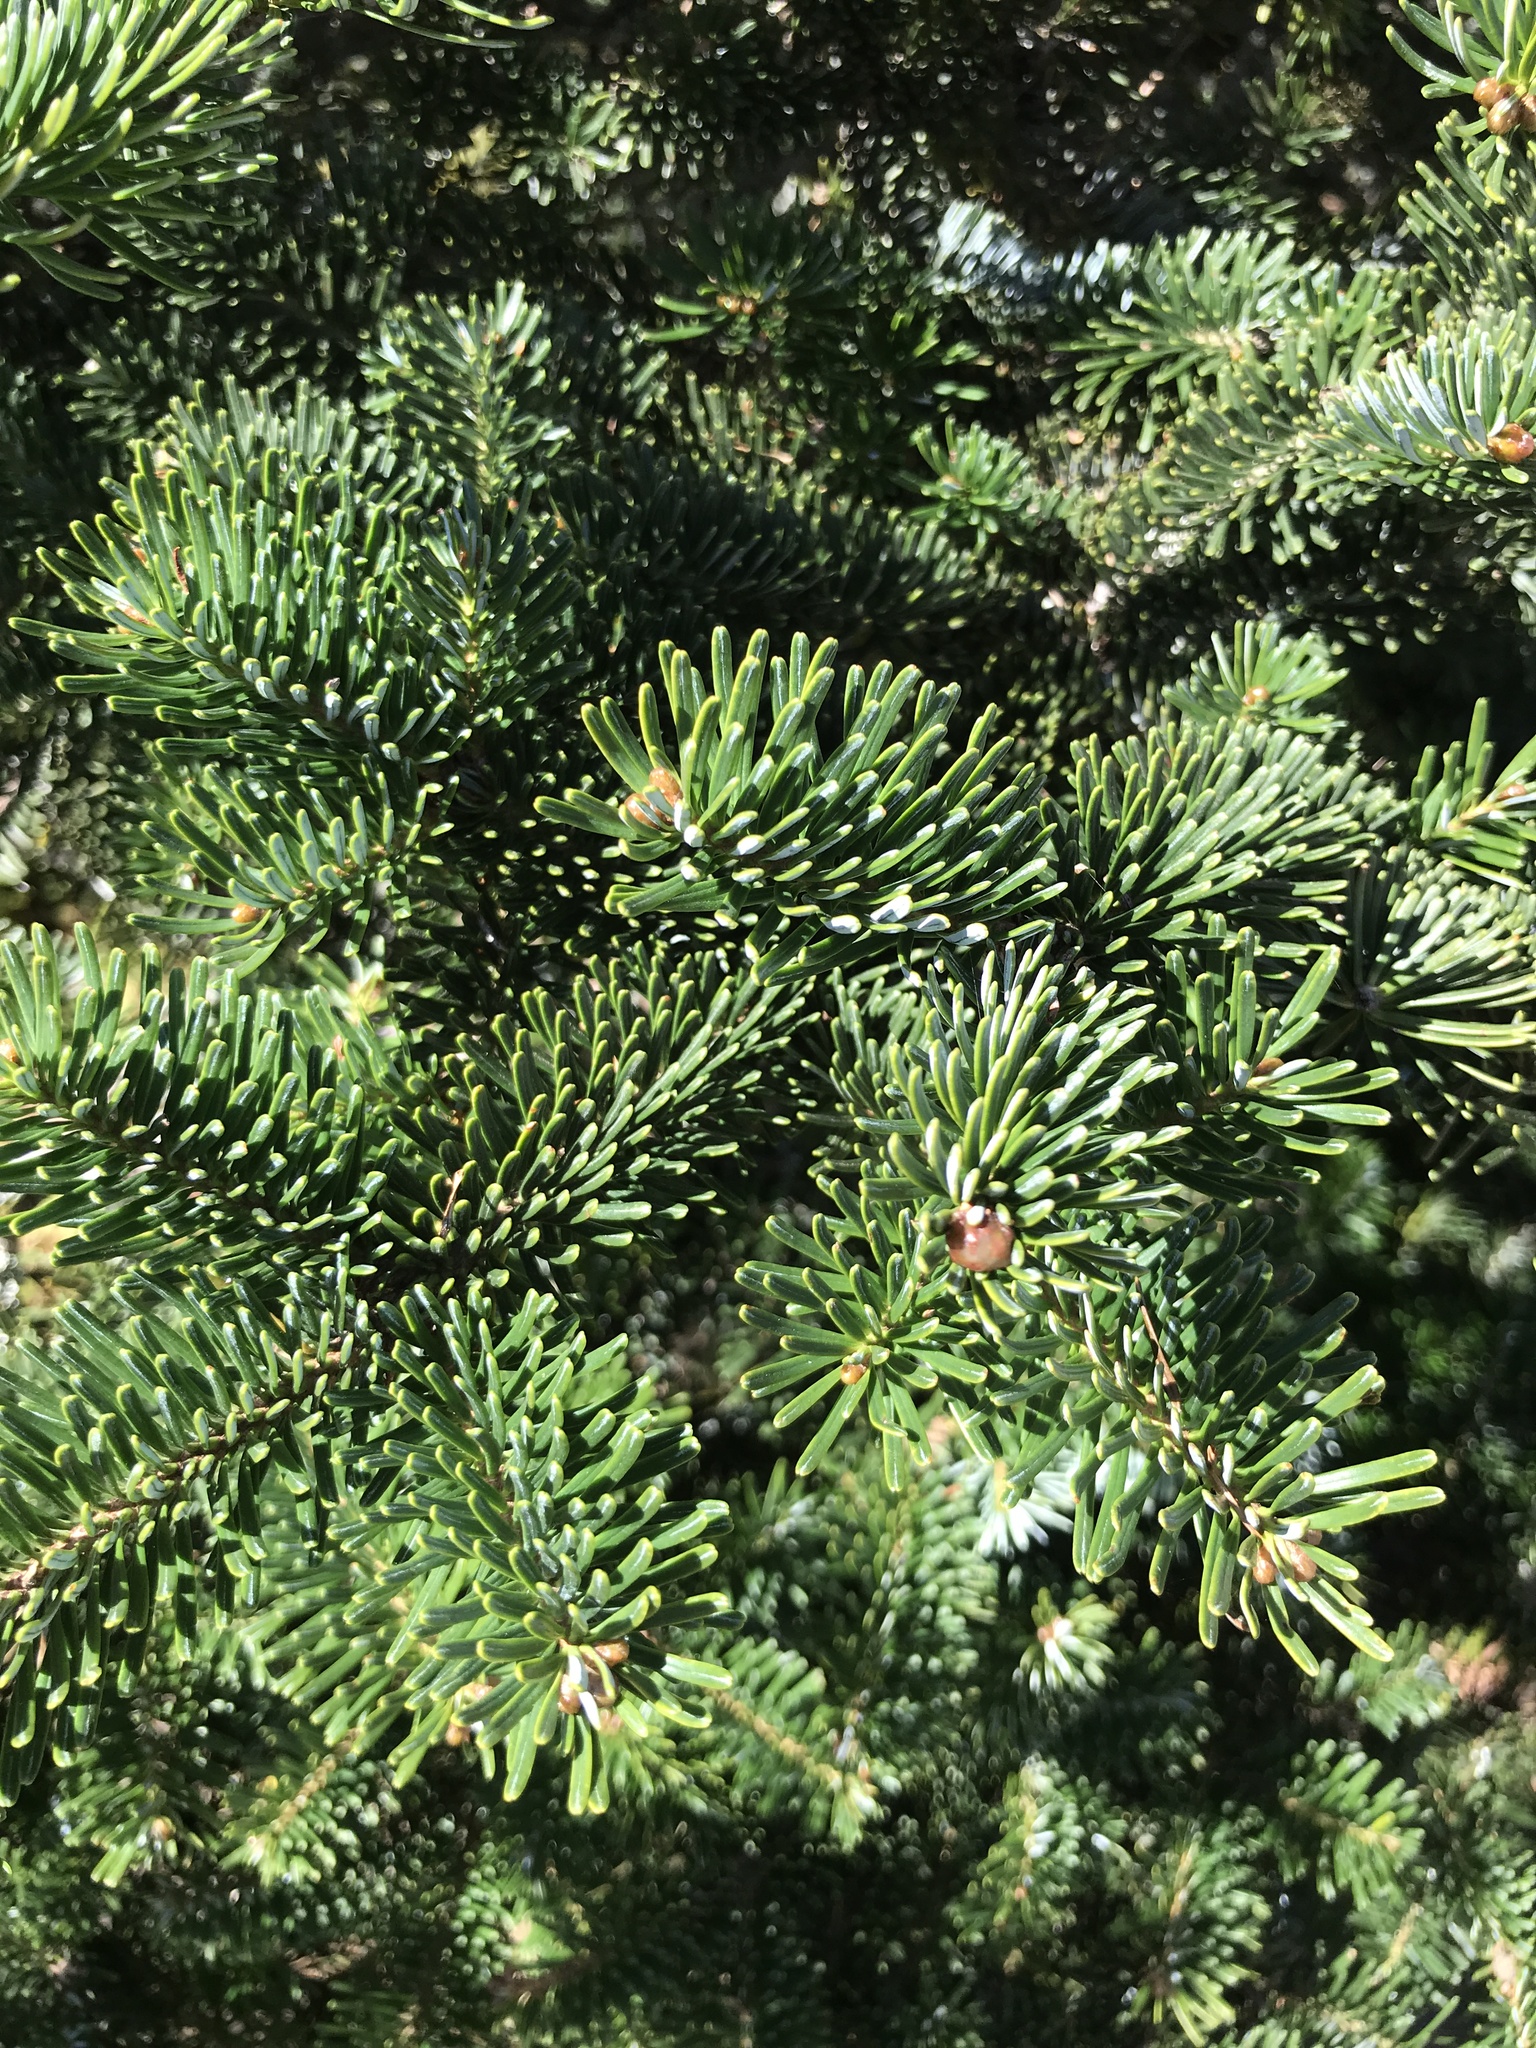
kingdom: Plantae
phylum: Tracheophyta
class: Pinopsida
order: Pinales
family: Pinaceae
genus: Abies
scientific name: Abies fraseri
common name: Fraser fir
